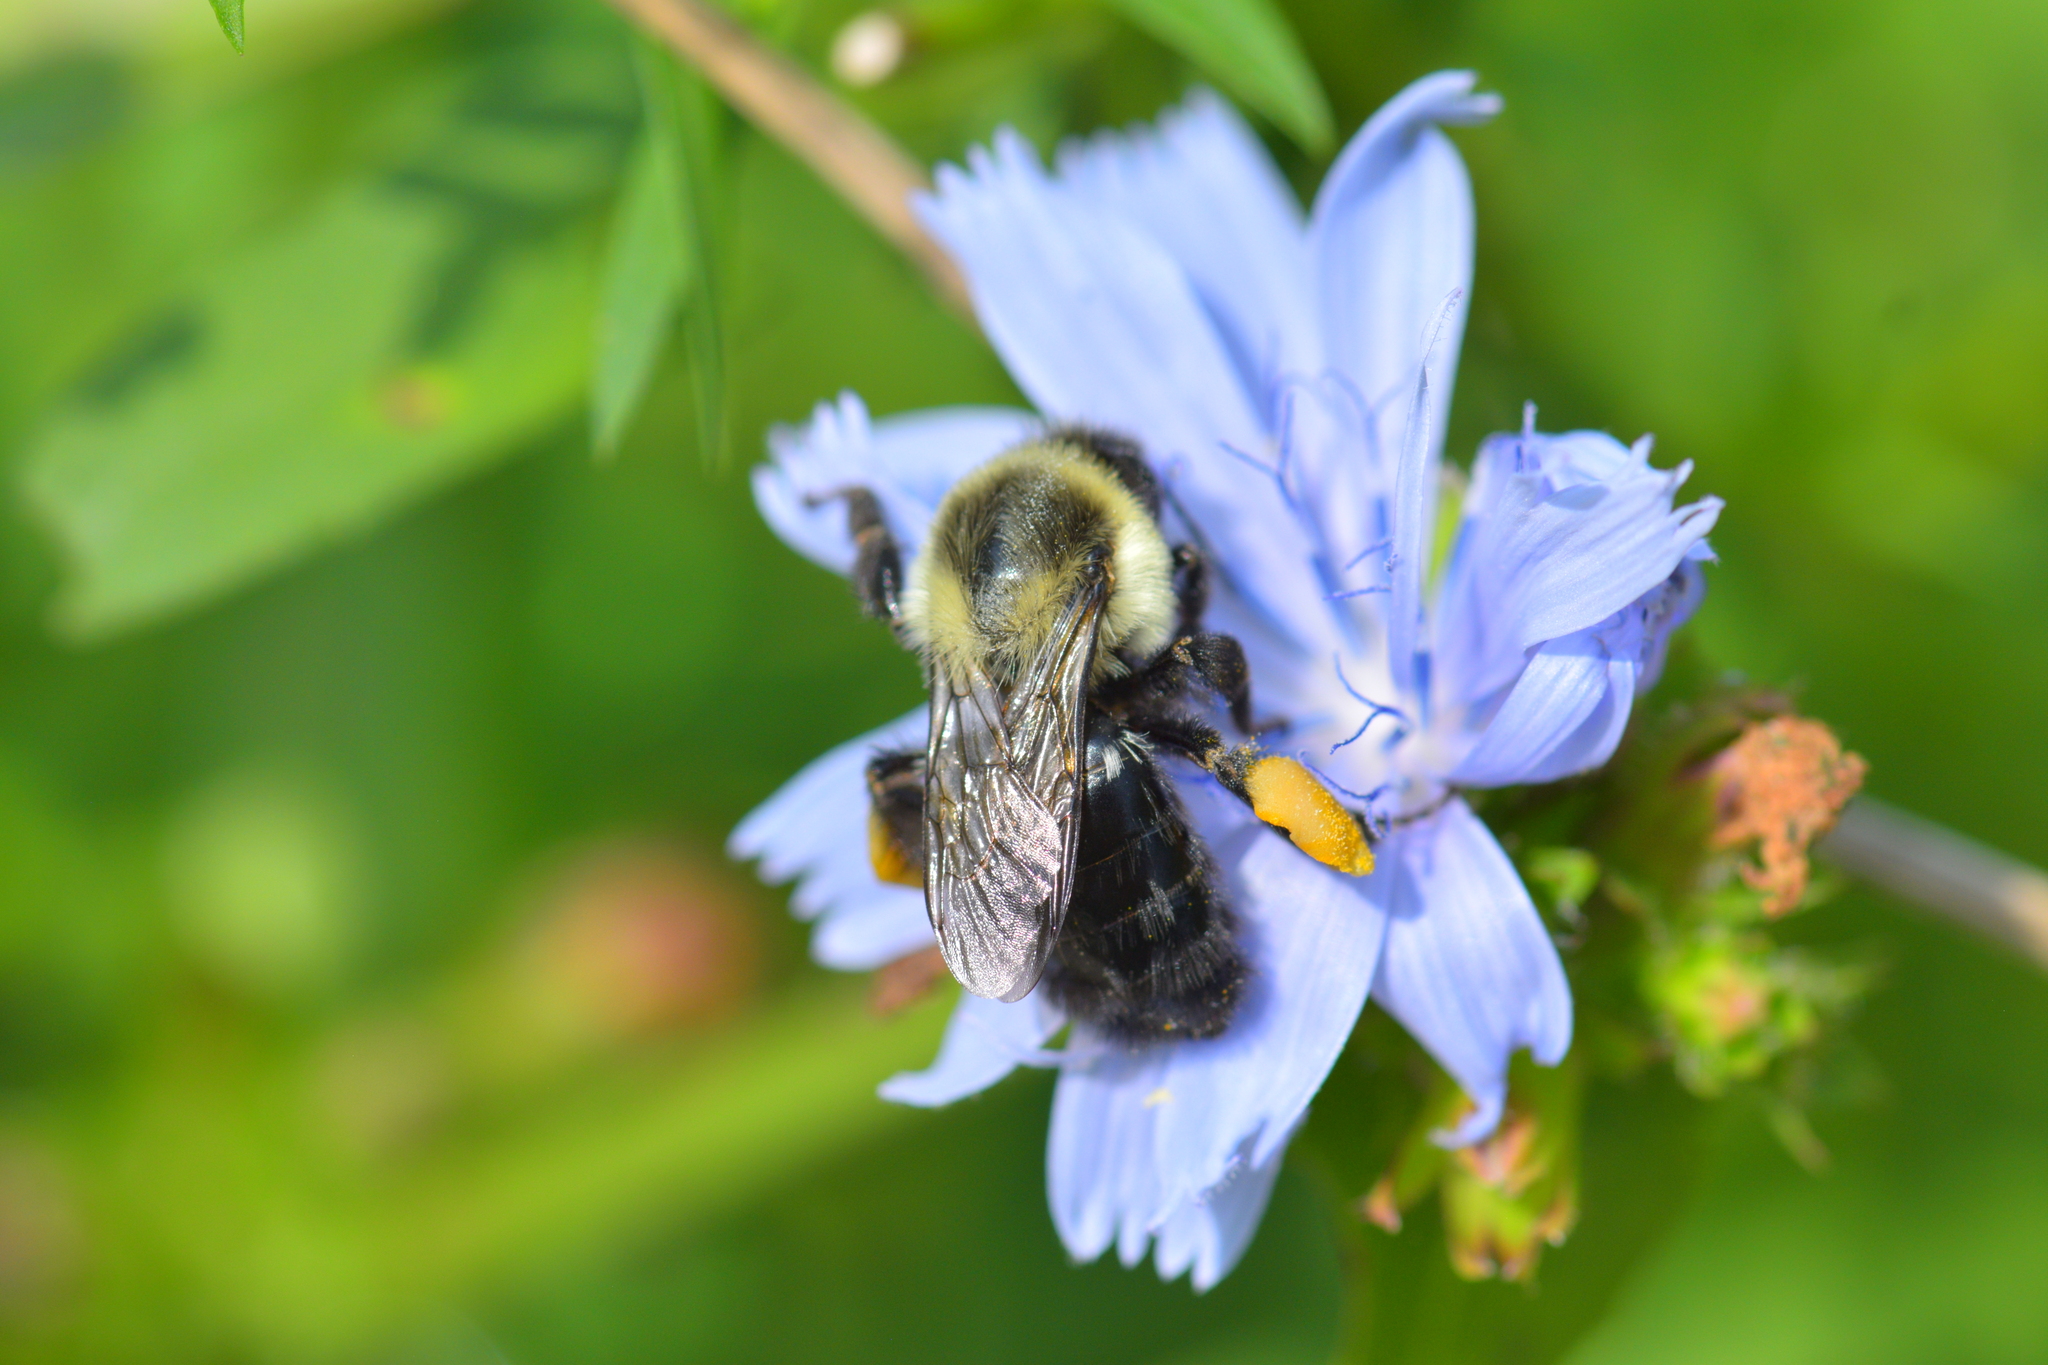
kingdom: Animalia
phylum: Arthropoda
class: Insecta
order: Hymenoptera
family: Apidae
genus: Bombus
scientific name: Bombus impatiens
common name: Common eastern bumble bee
